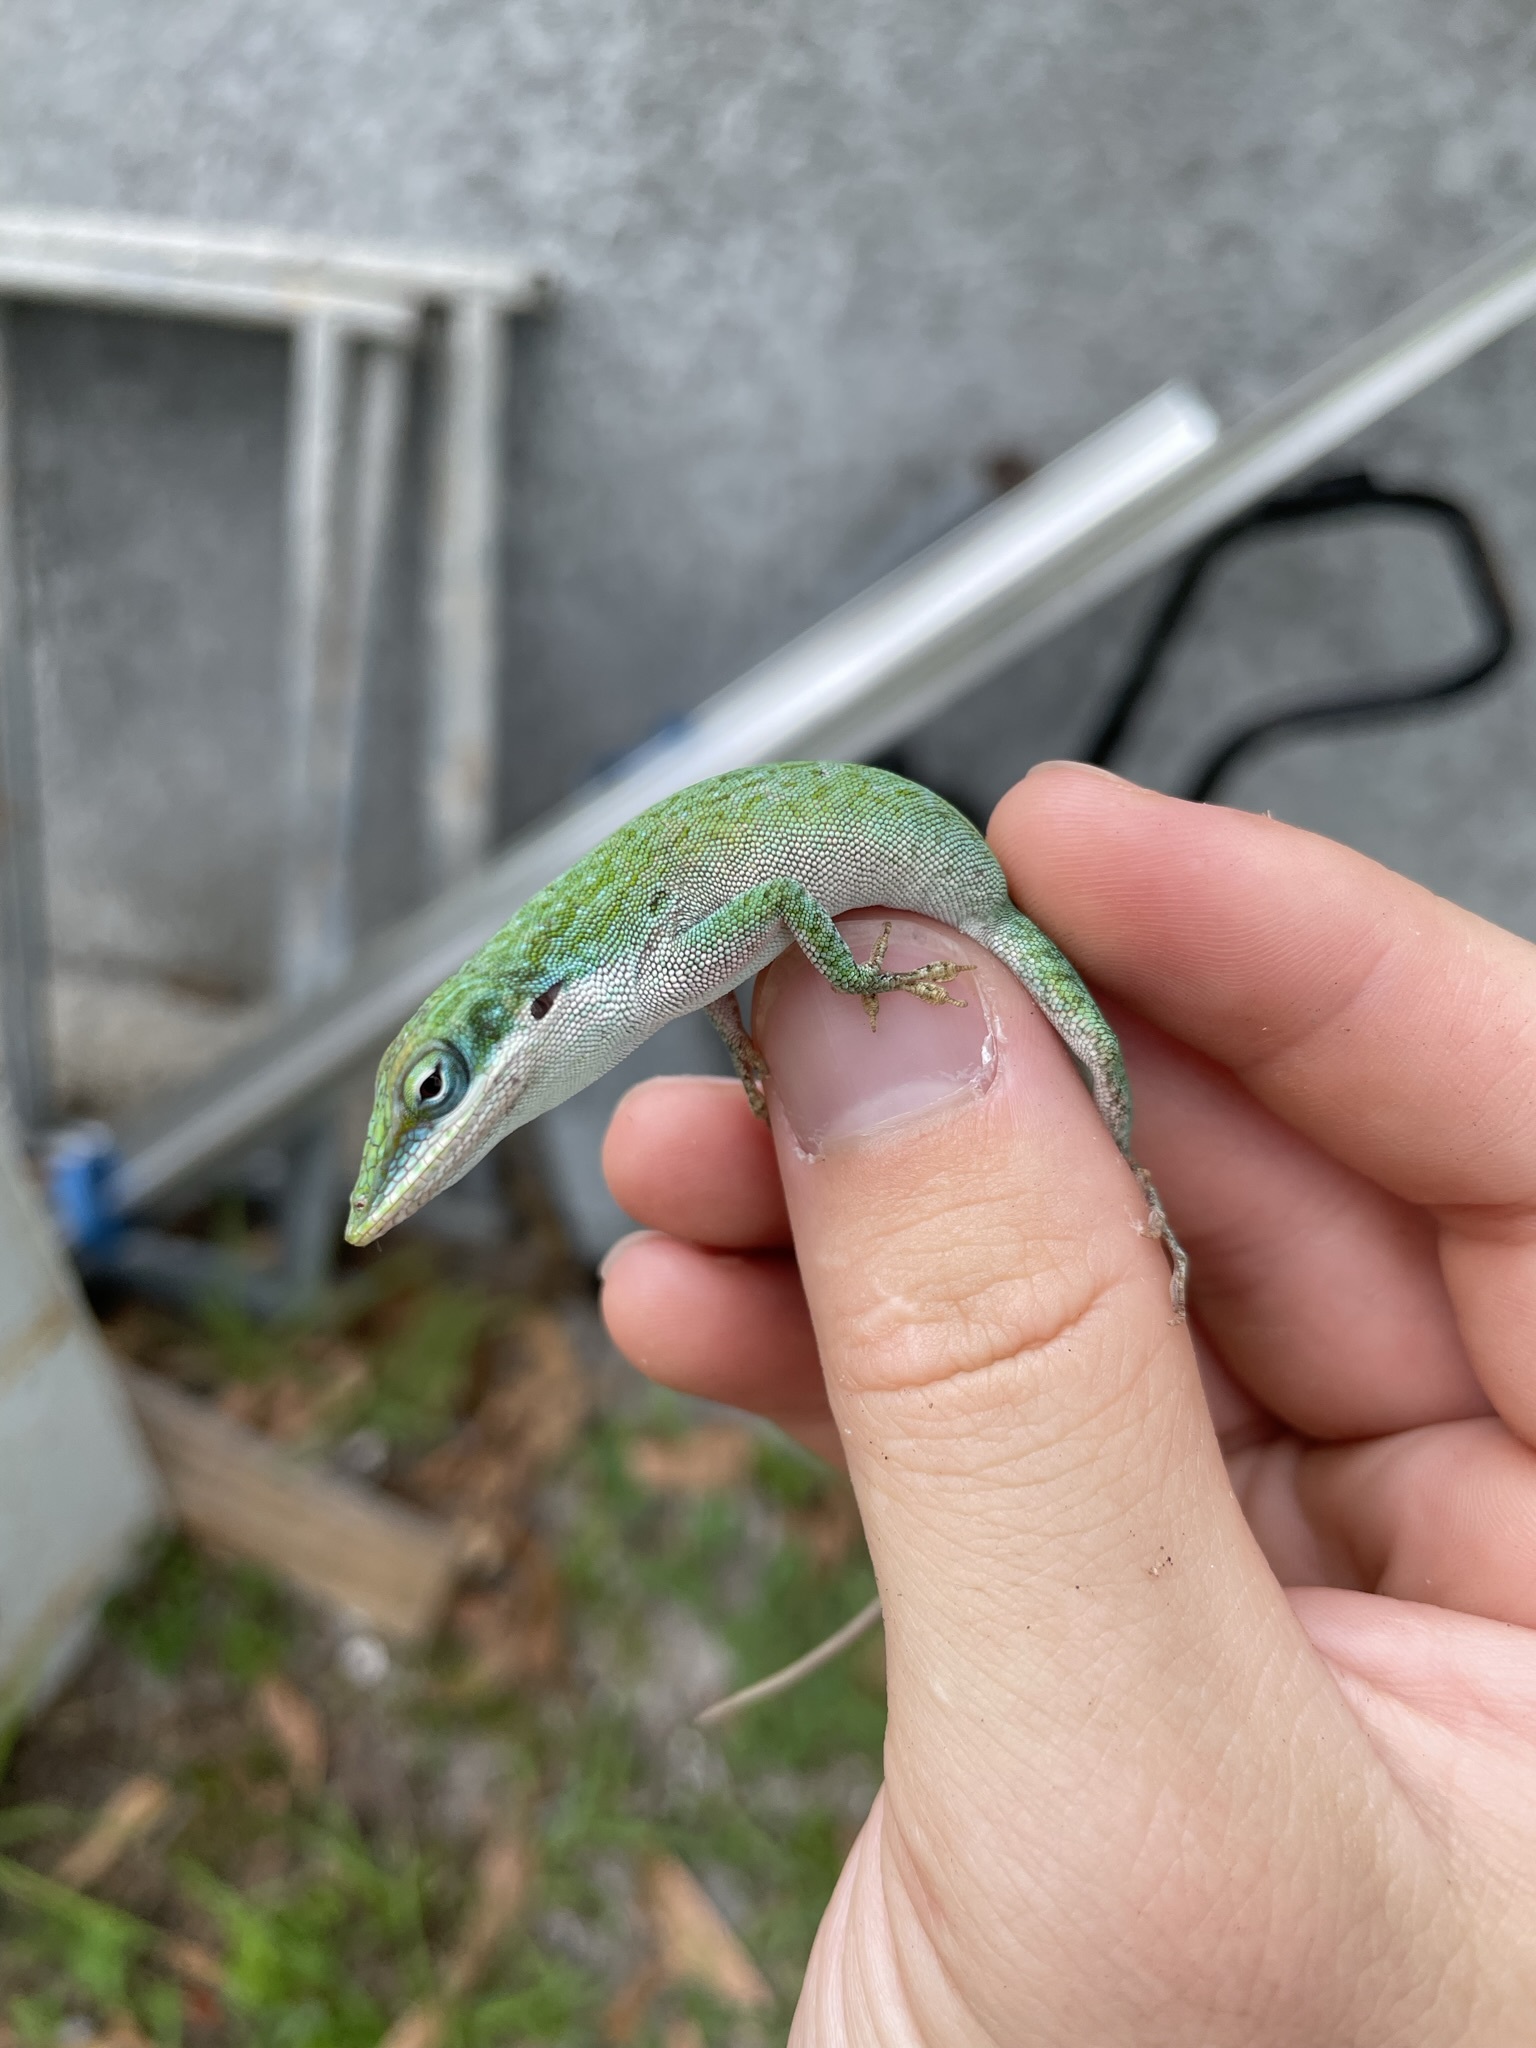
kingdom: Animalia
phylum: Chordata
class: Squamata
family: Dactyloidae
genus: Anolis
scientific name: Anolis allisoni
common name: Allison's anole
